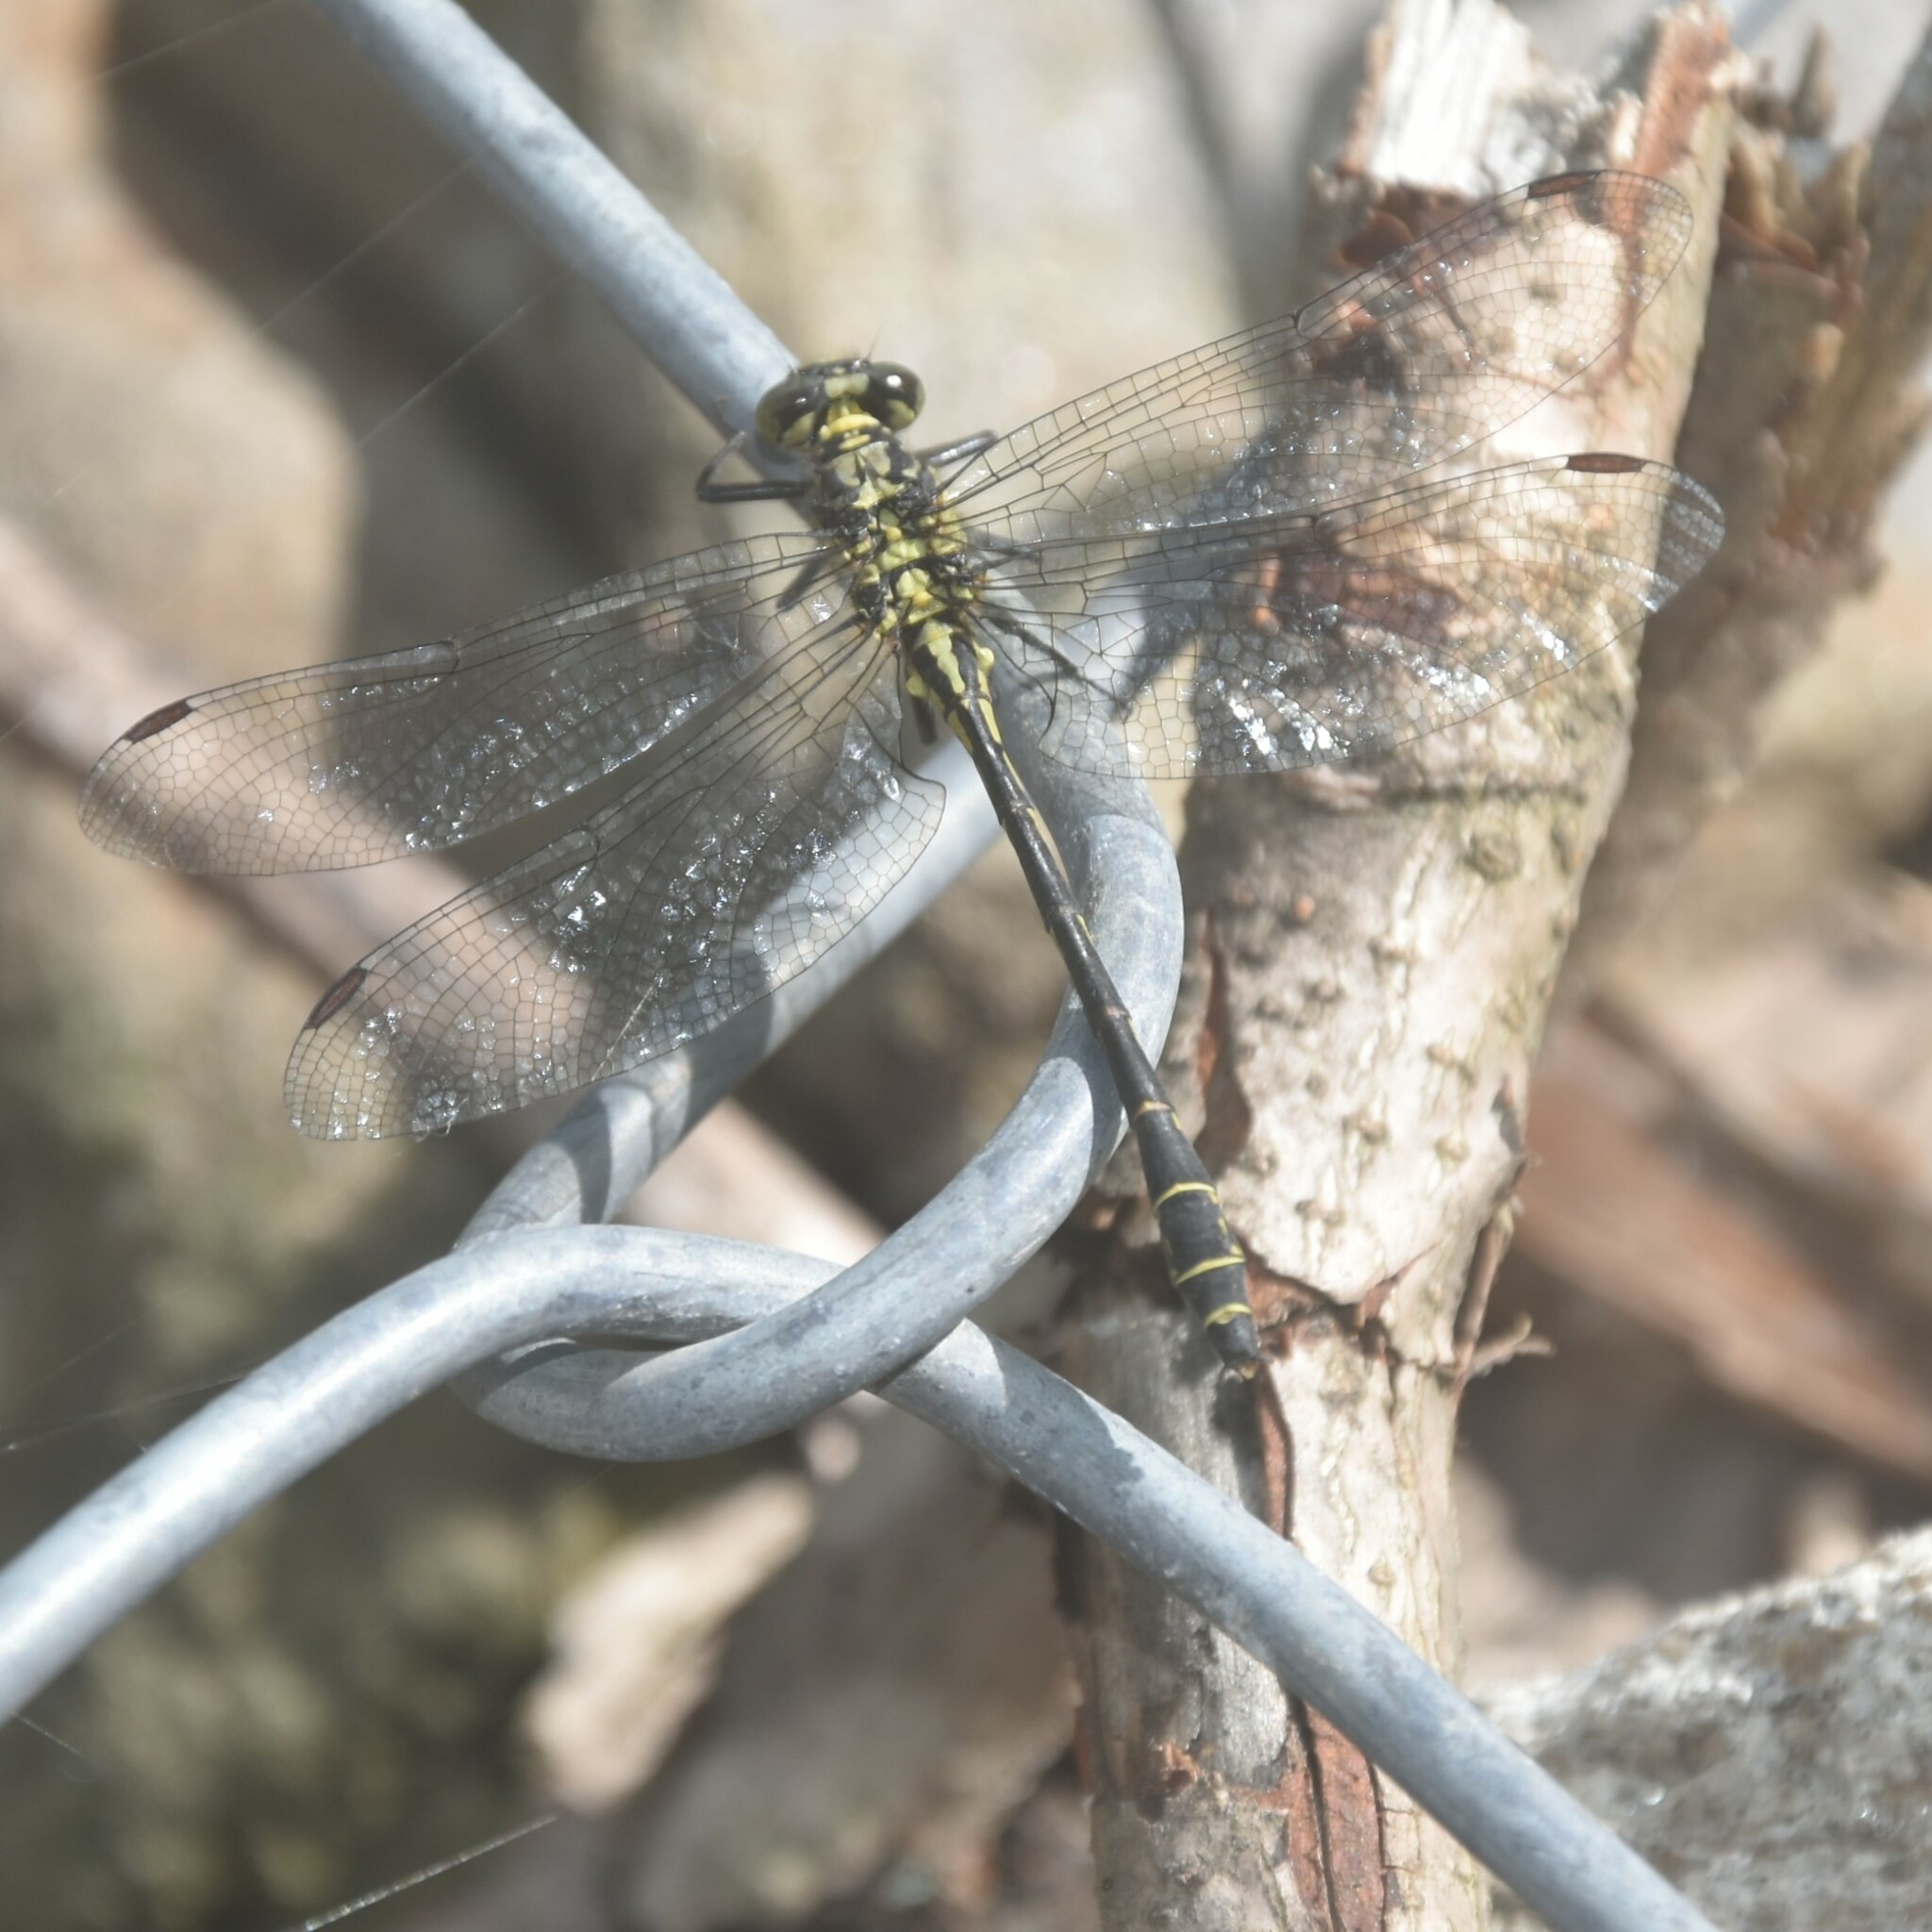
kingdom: Animalia
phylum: Arthropoda
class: Insecta
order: Odonata
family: Gomphidae
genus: Davidius
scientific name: Davidius aberrans
